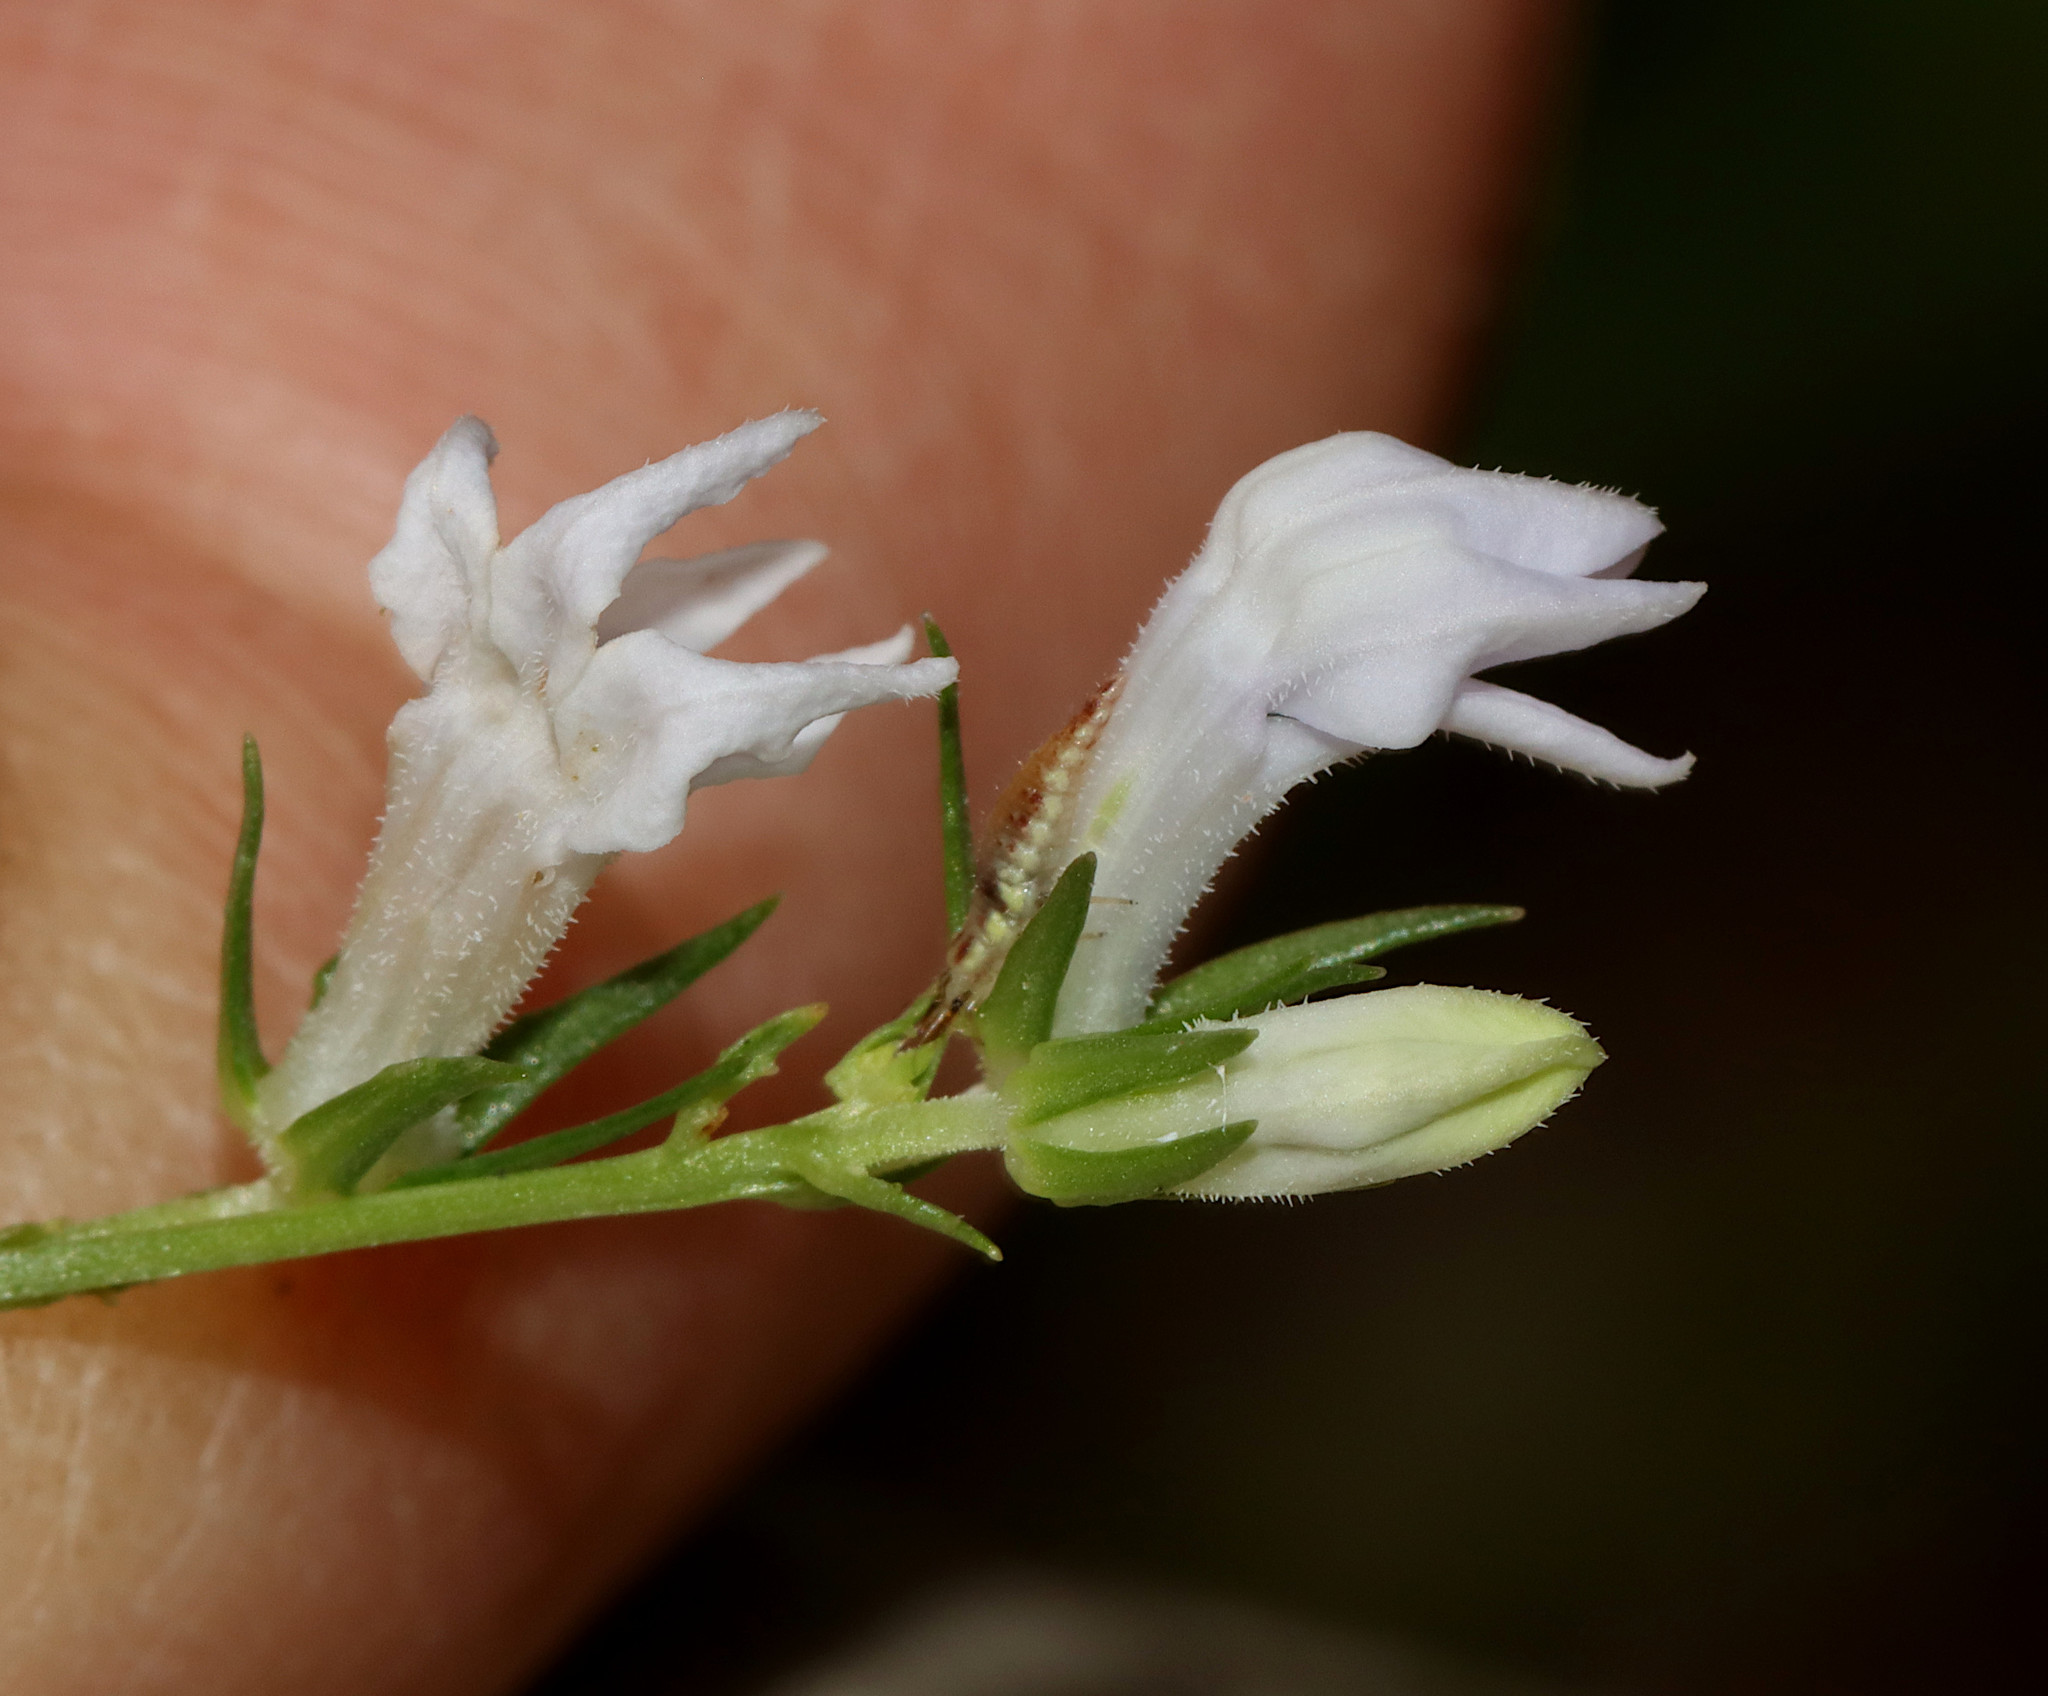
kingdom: Plantae
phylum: Tracheophyta
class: Magnoliopsida
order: Asterales
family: Campanulaceae
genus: Lobelia
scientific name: Lobelia spicata
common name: Pale-spike lobelia
